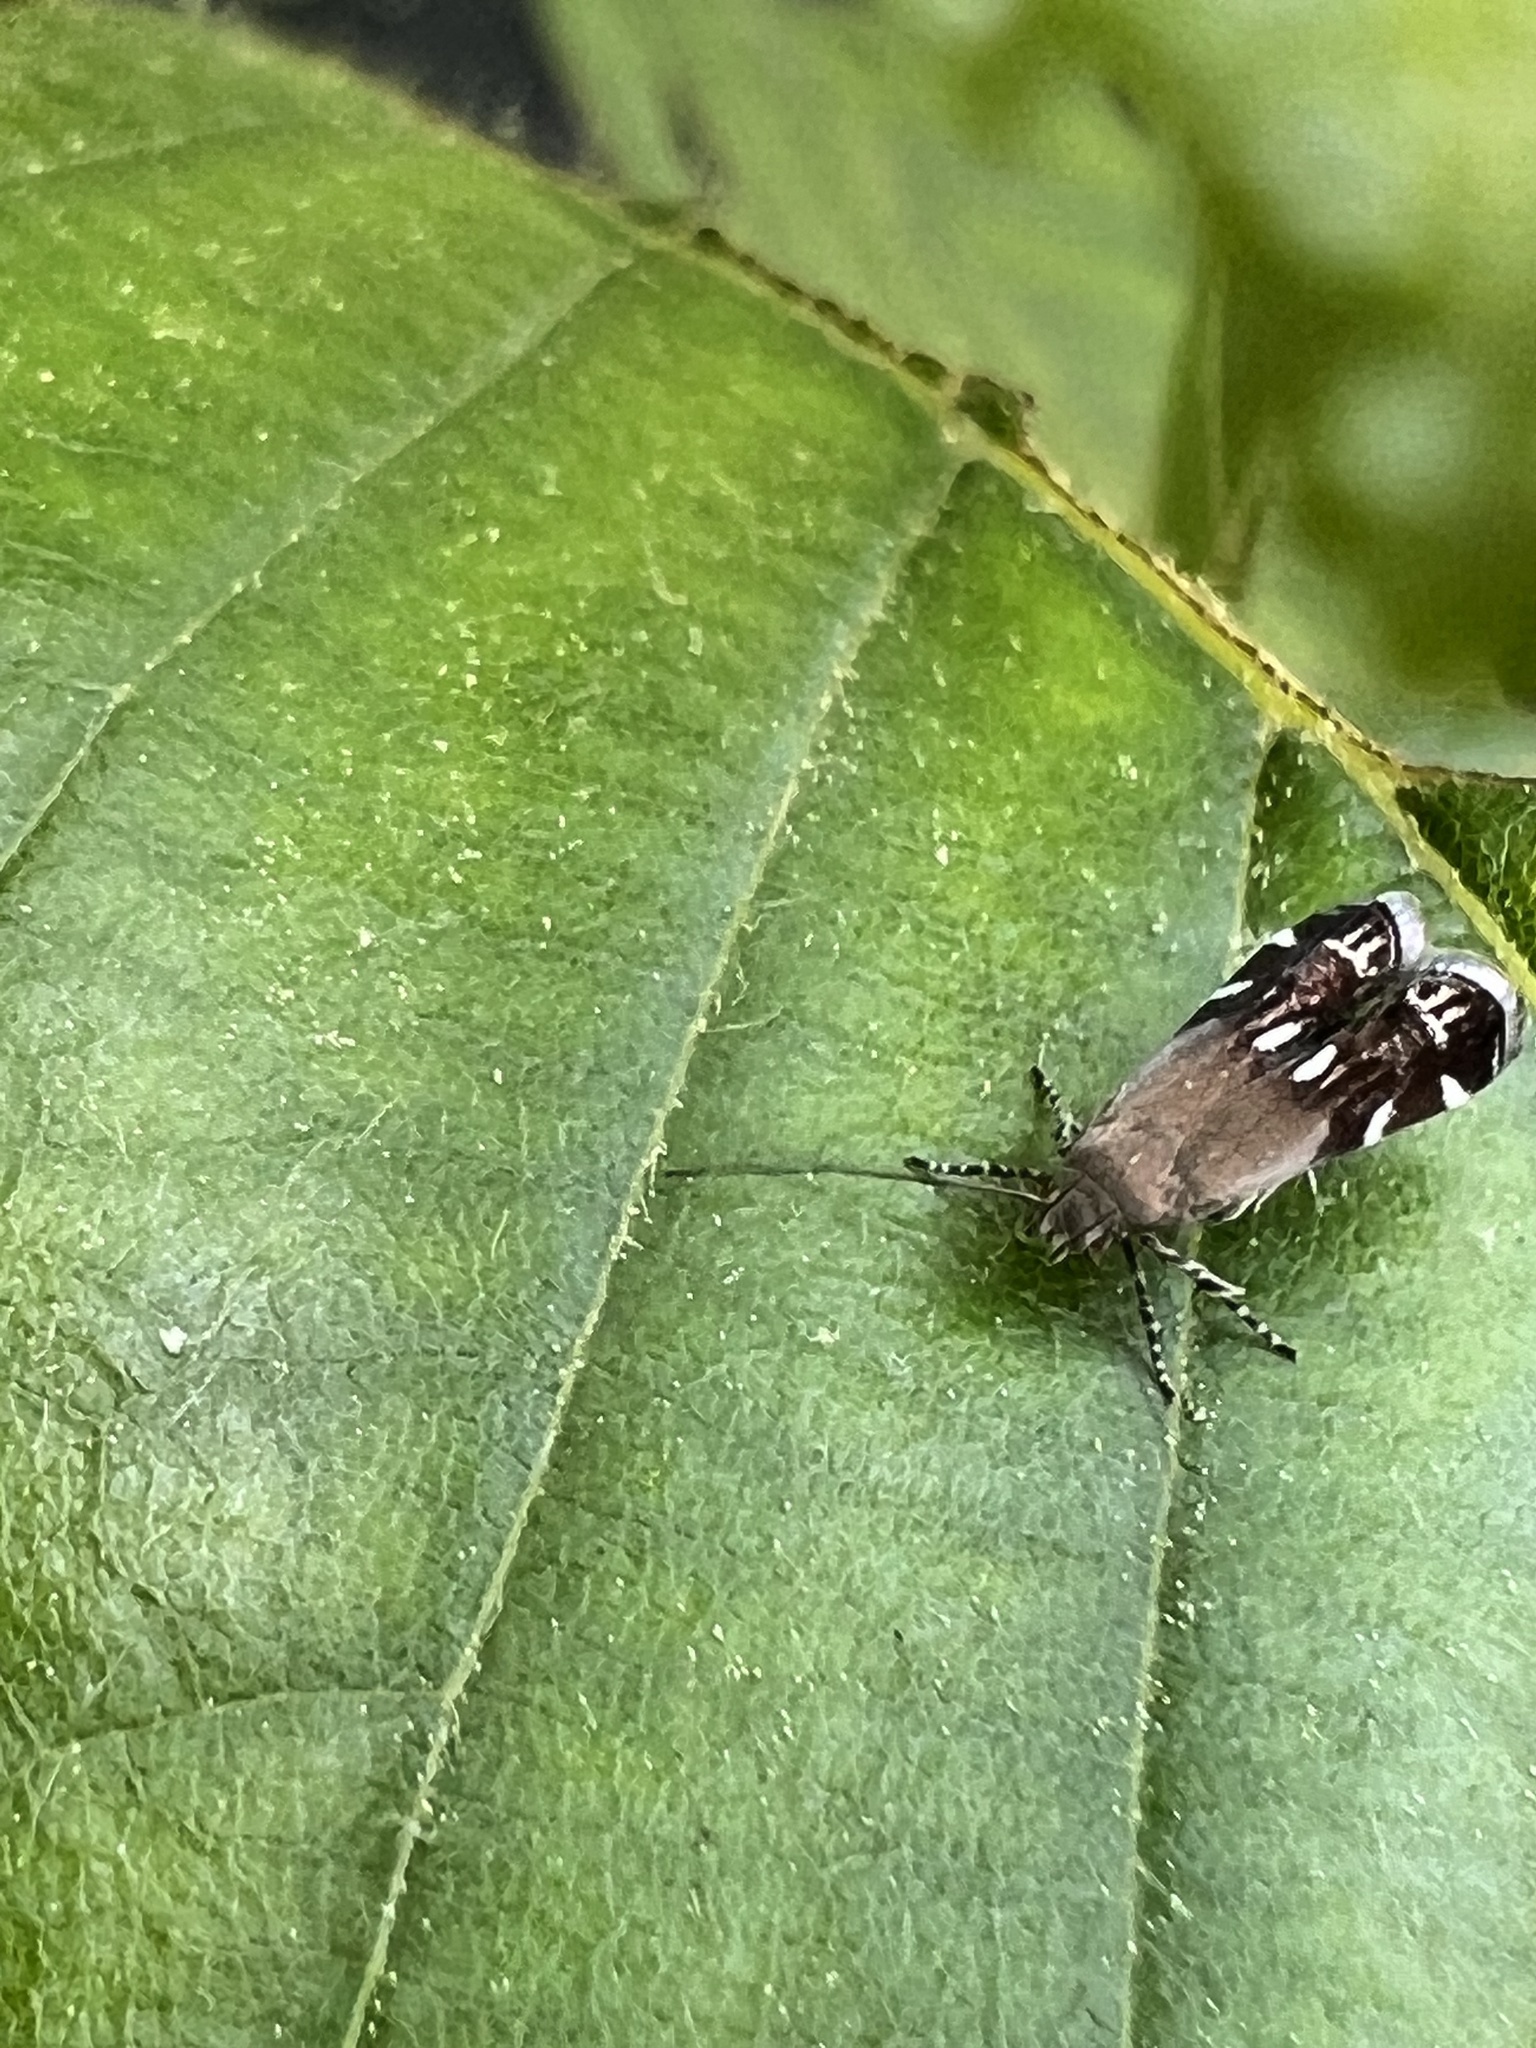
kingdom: Animalia
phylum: Arthropoda
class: Insecta
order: Lepidoptera
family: Gelechiidae
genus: Anacampsis
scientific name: Anacampsis levipedella
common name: Silver-dashed anacampsis
